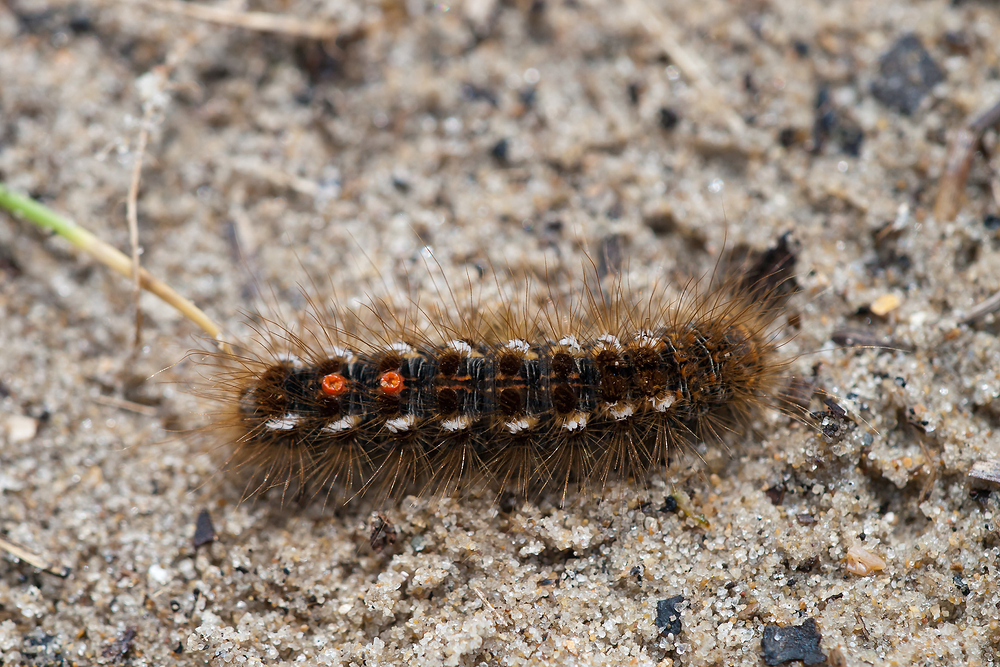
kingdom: Animalia
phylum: Arthropoda
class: Insecta
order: Lepidoptera
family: Erebidae
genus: Euproctis
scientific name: Euproctis chrysorrhoea
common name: Brown-tail
